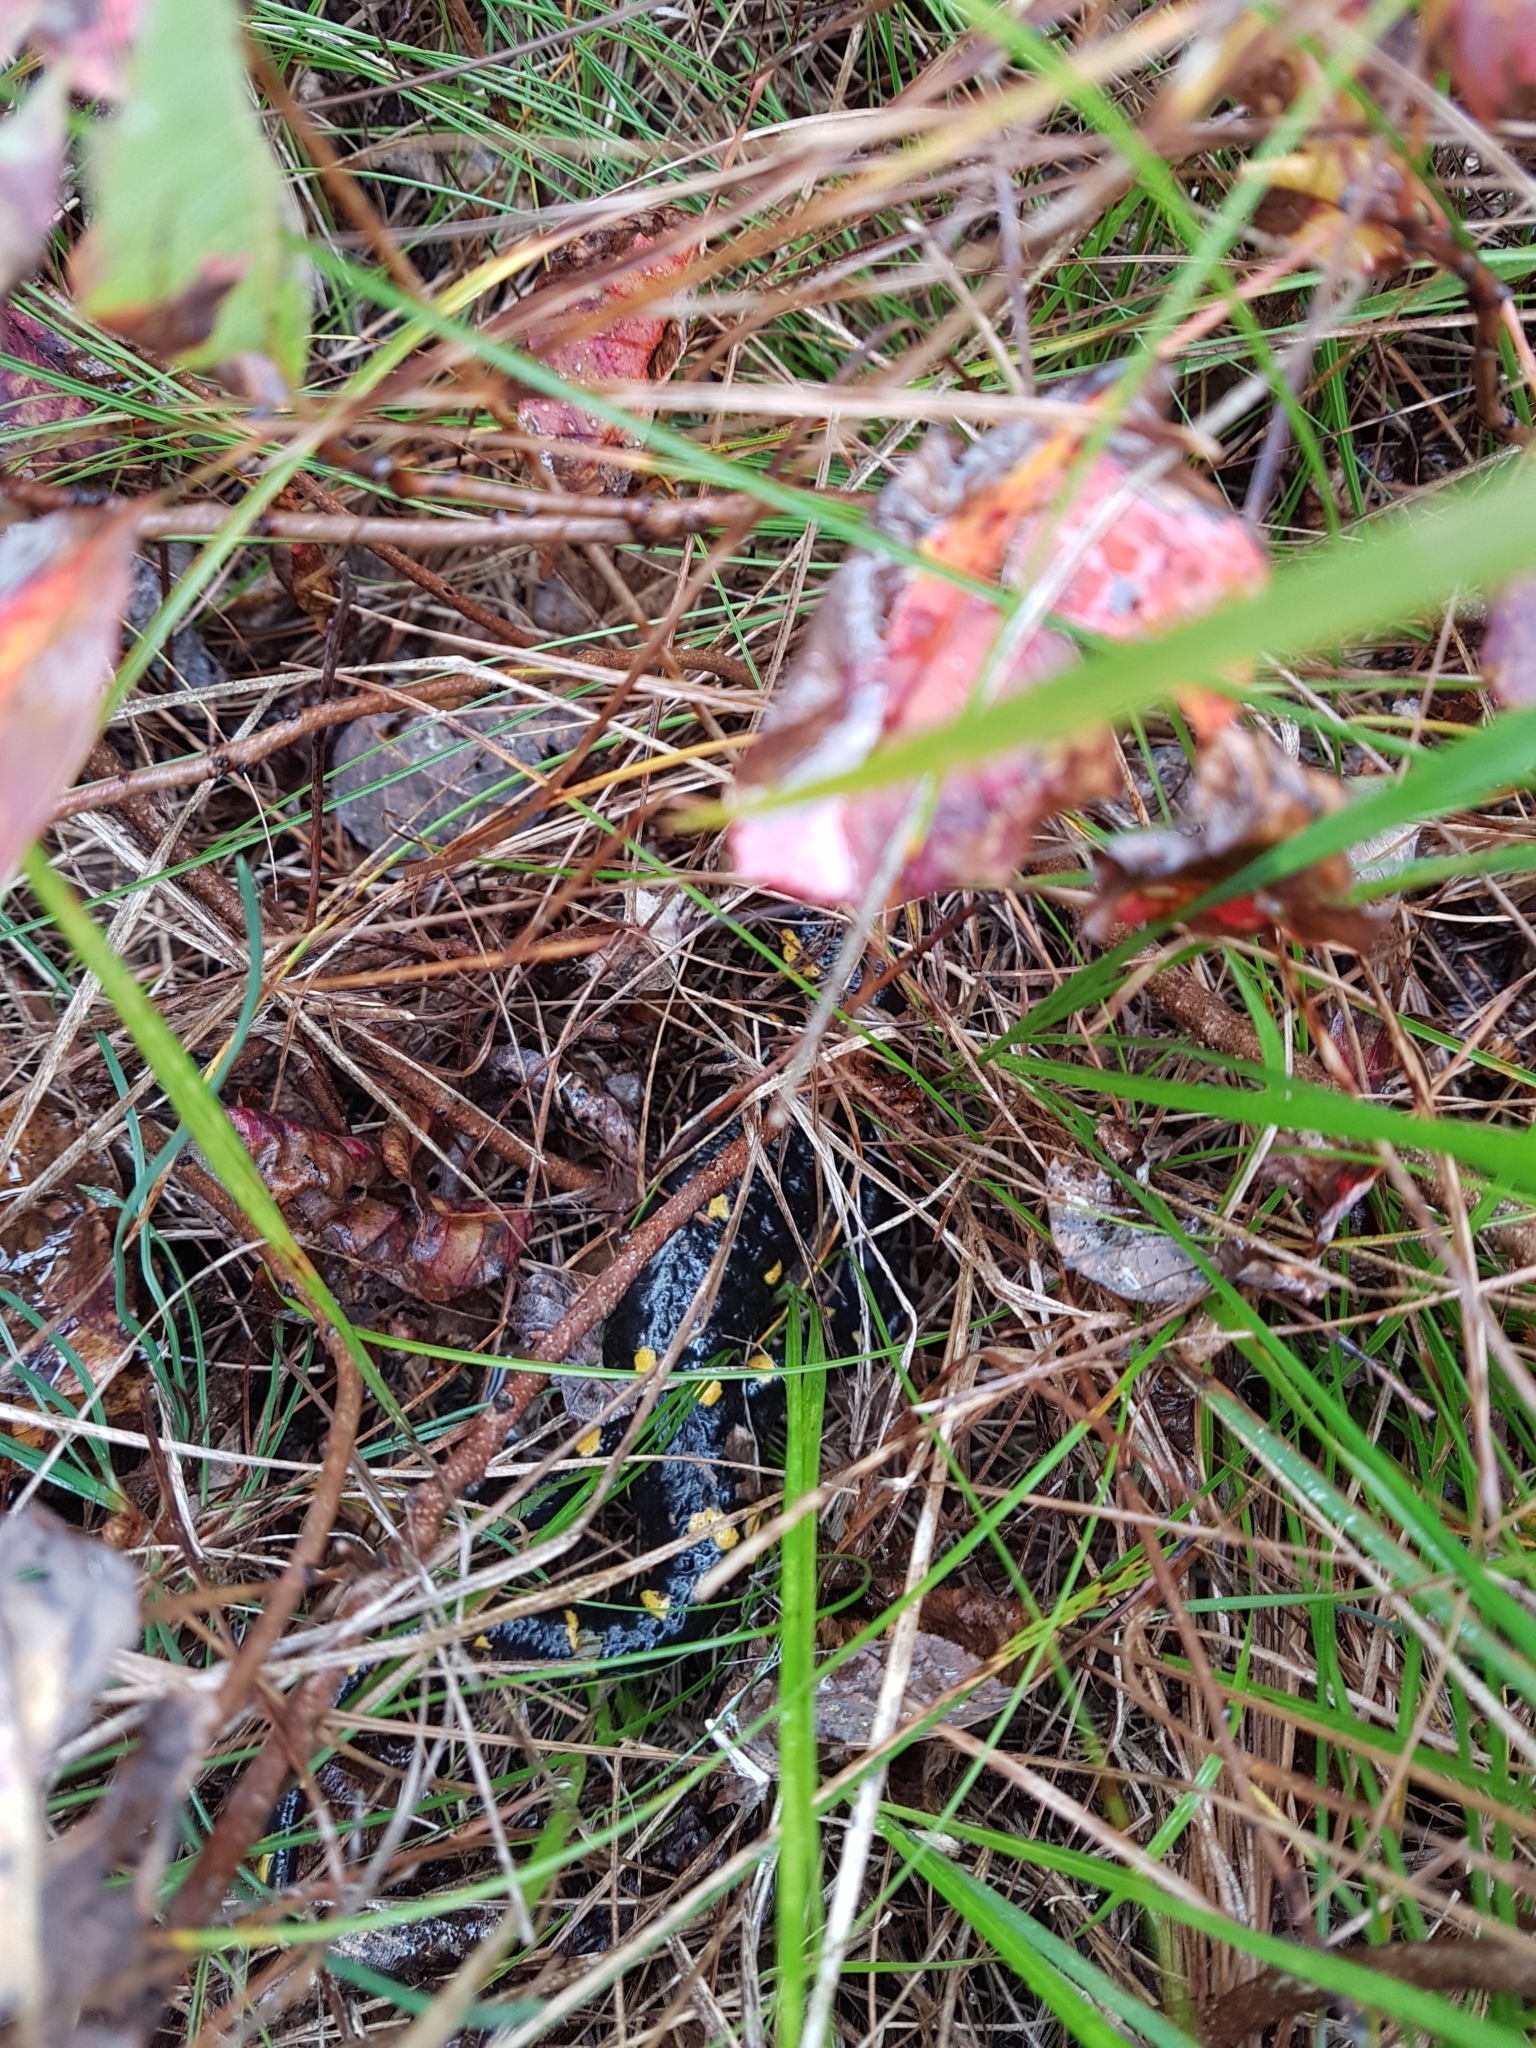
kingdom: Animalia
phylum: Chordata
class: Amphibia
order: Caudata
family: Salamandridae
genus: Salamandra
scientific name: Salamandra salamandra
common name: Fire salamander
